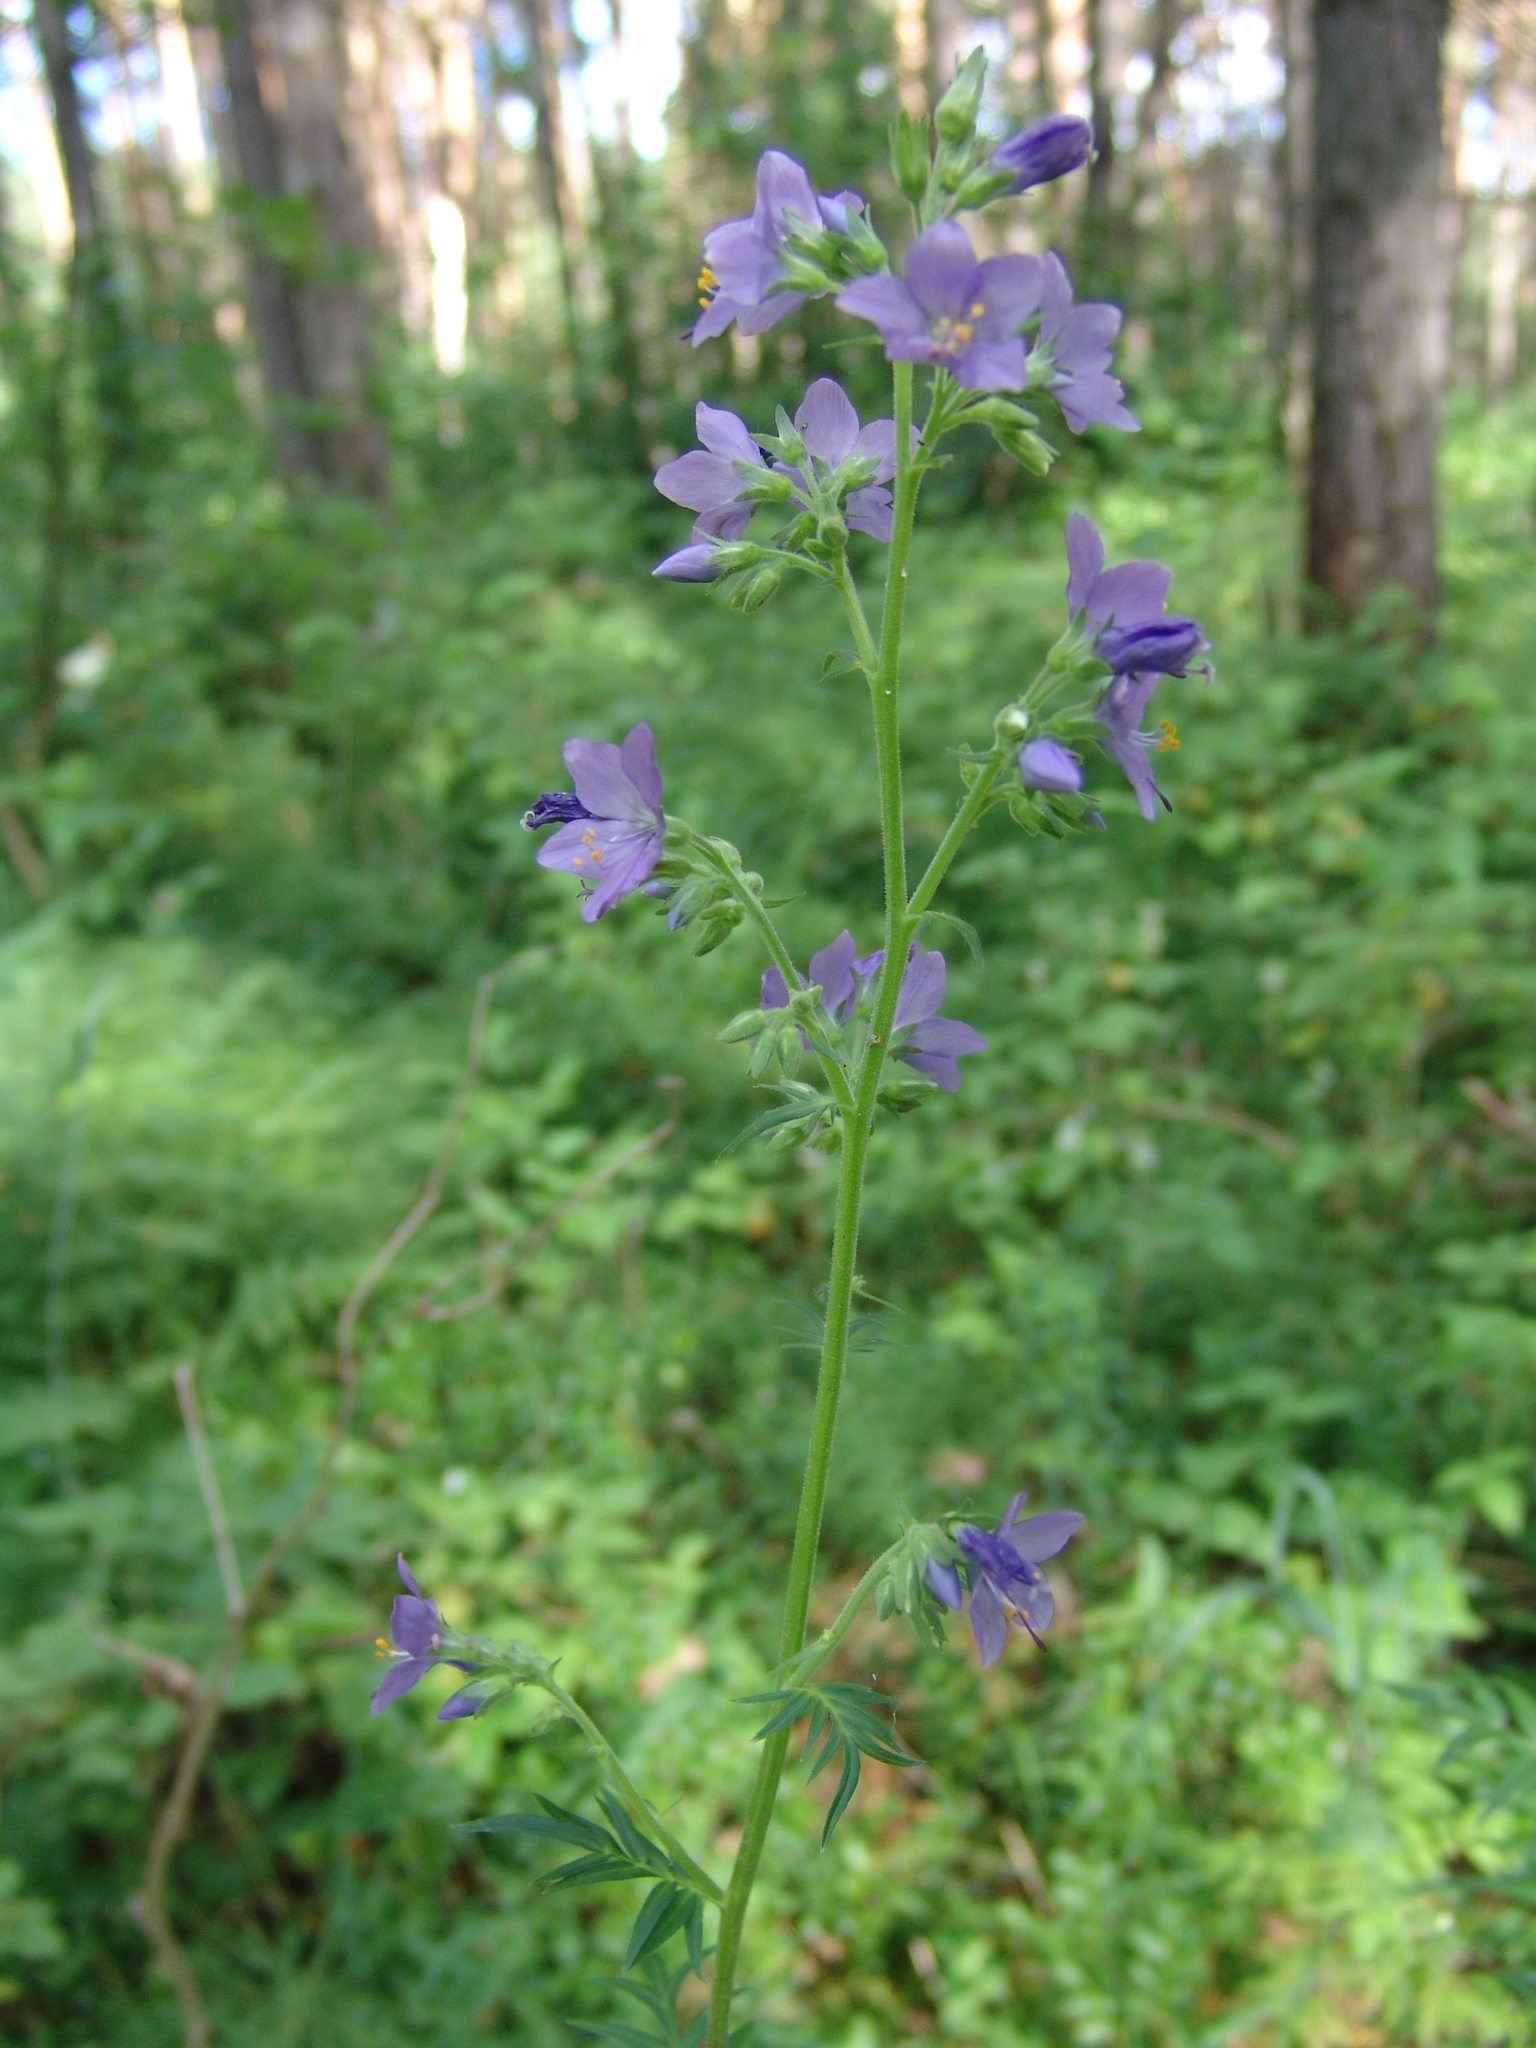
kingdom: Plantae
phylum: Tracheophyta
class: Magnoliopsida
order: Ericales
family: Polemoniaceae
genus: Polemonium
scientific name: Polemonium caeruleum
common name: Jacob's-ladder
